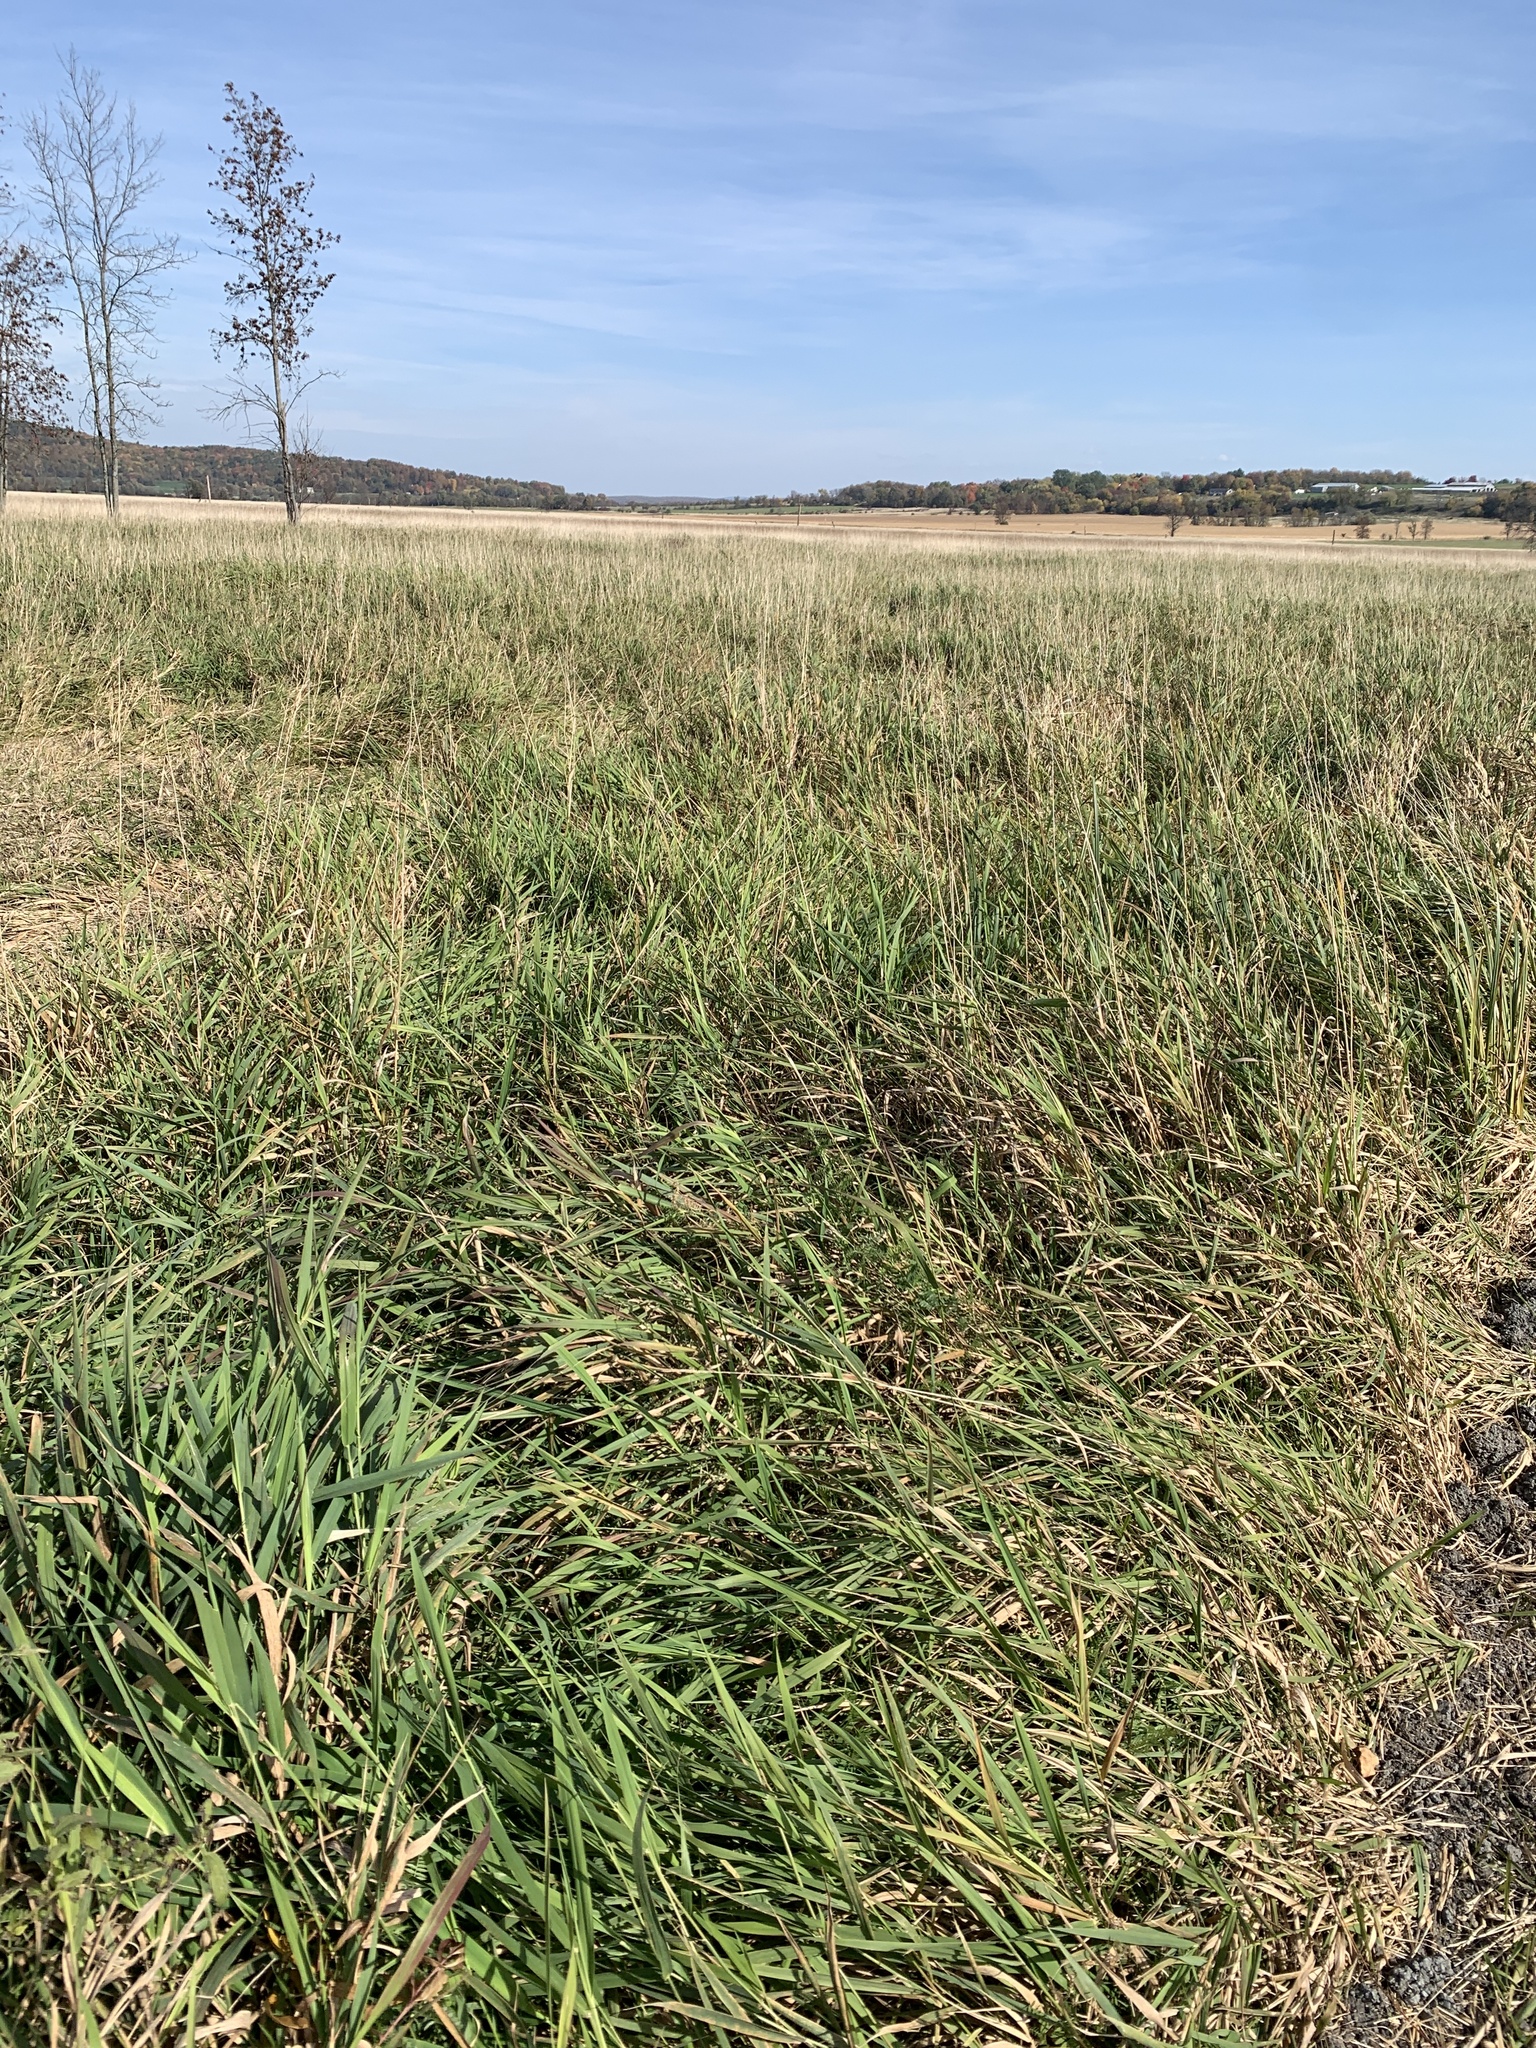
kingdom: Plantae
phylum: Tracheophyta
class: Liliopsida
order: Poales
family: Poaceae
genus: Phalaris
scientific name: Phalaris arundinacea
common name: Reed canary-grass
